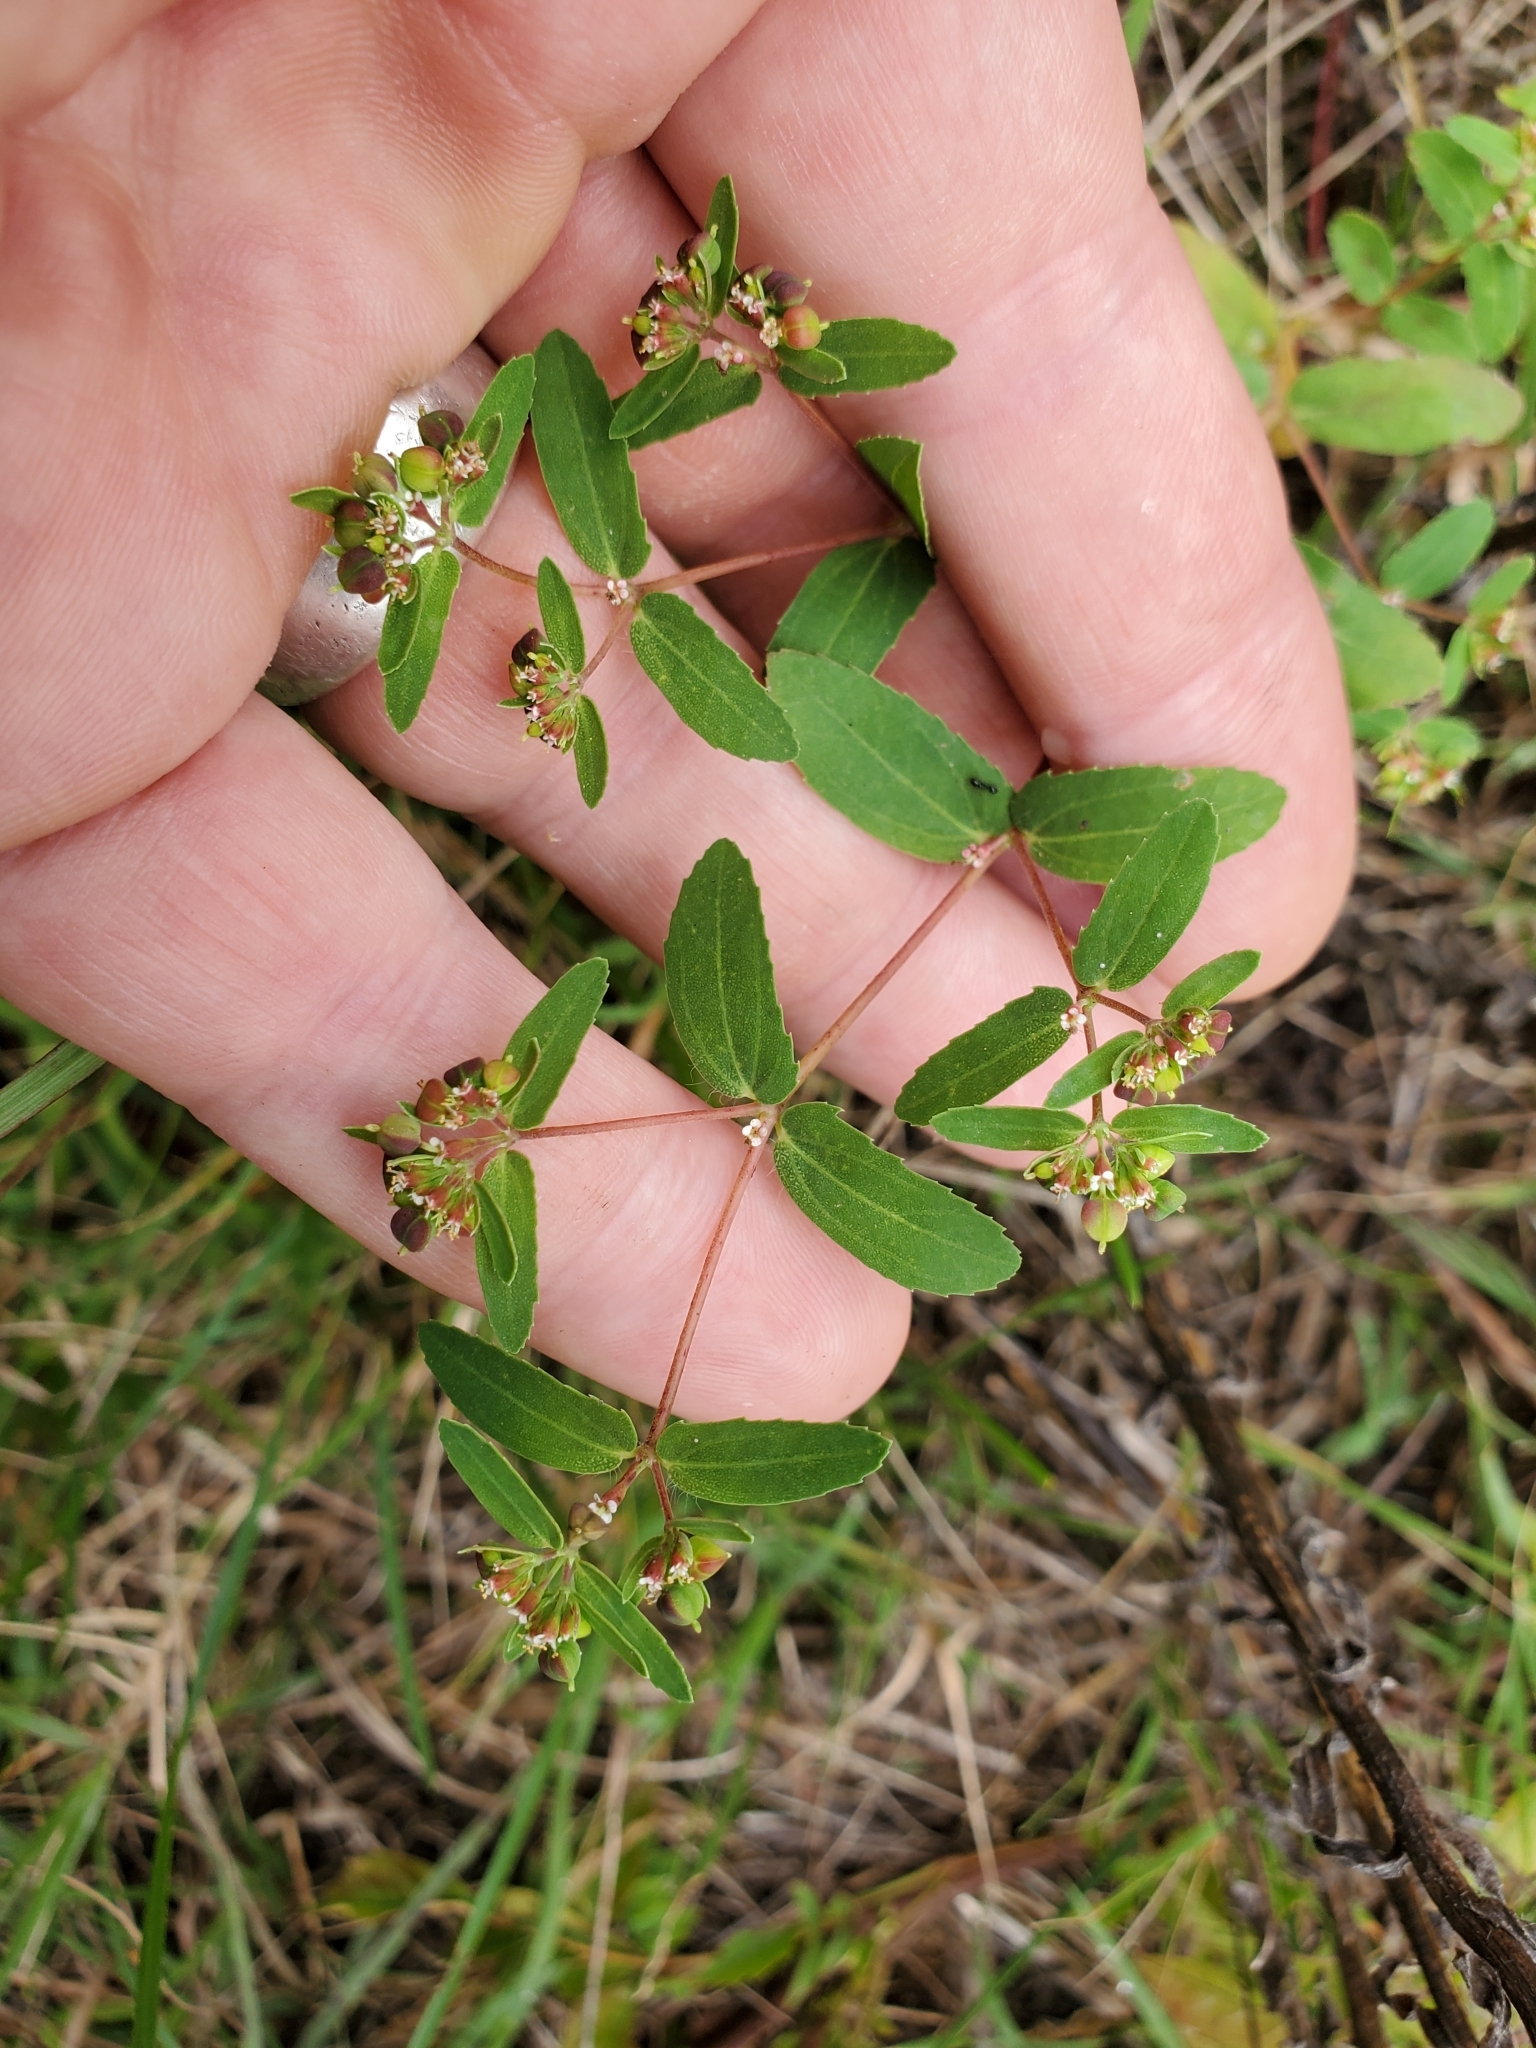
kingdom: Plantae
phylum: Tracheophyta
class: Magnoliopsida
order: Malpighiales
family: Euphorbiaceae
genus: Euphorbia
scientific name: Euphorbia nutans
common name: Eyebane
